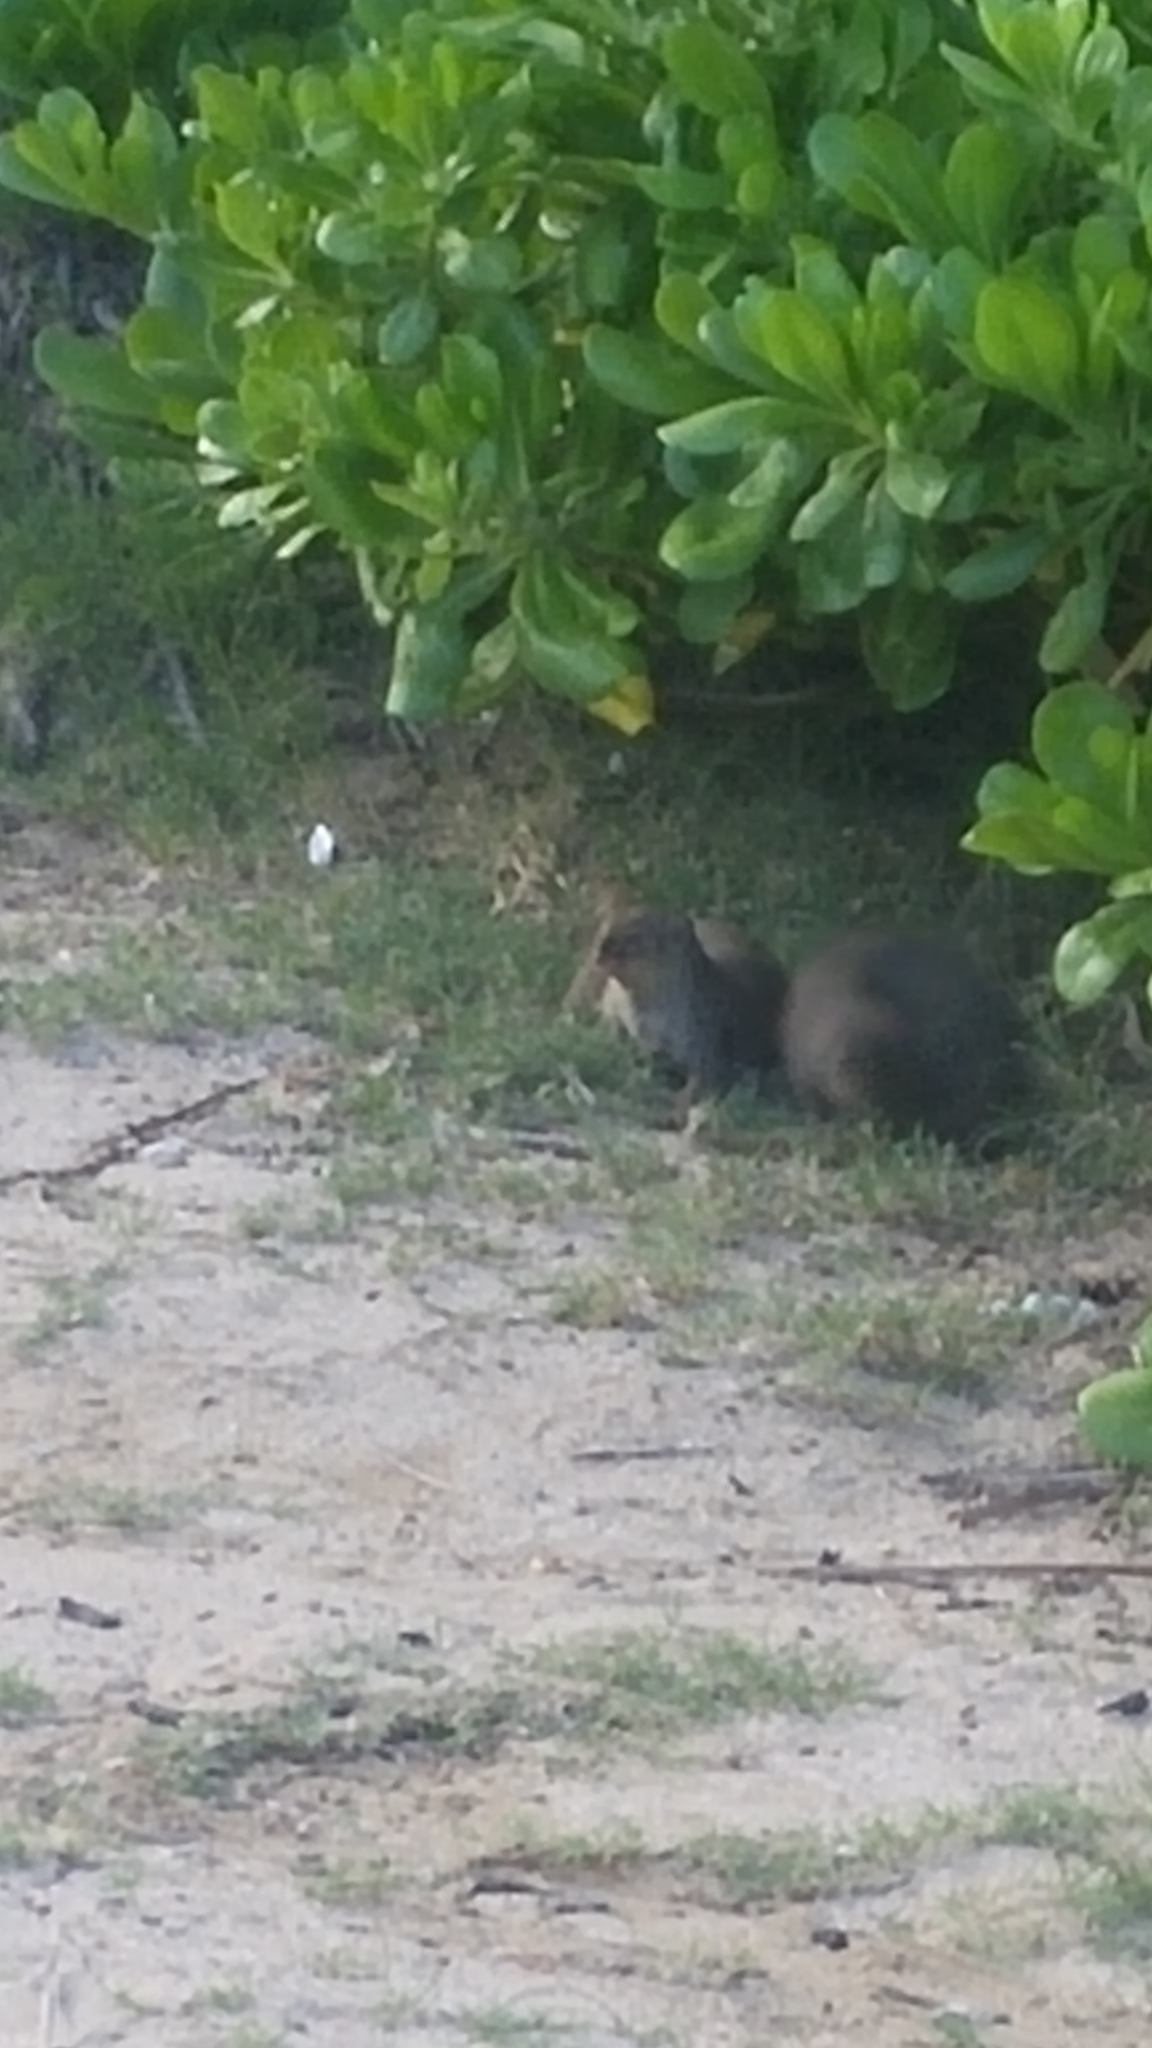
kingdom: Animalia
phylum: Chordata
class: Mammalia
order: Carnivora
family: Herpestidae
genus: Herpestes
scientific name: Herpestes javanicus
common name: Small asian mongoose
